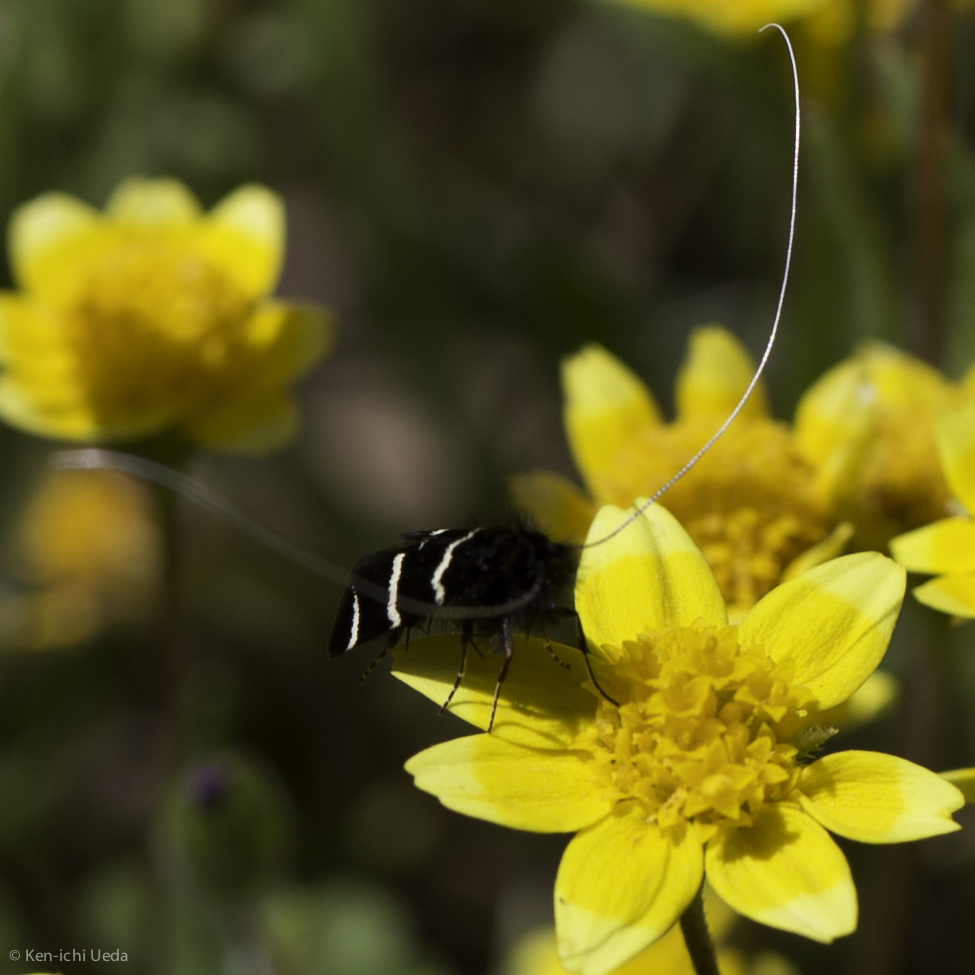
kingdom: Animalia
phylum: Arthropoda
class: Insecta
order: Lepidoptera
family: Adelidae
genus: Adela
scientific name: Adela trigrapha
